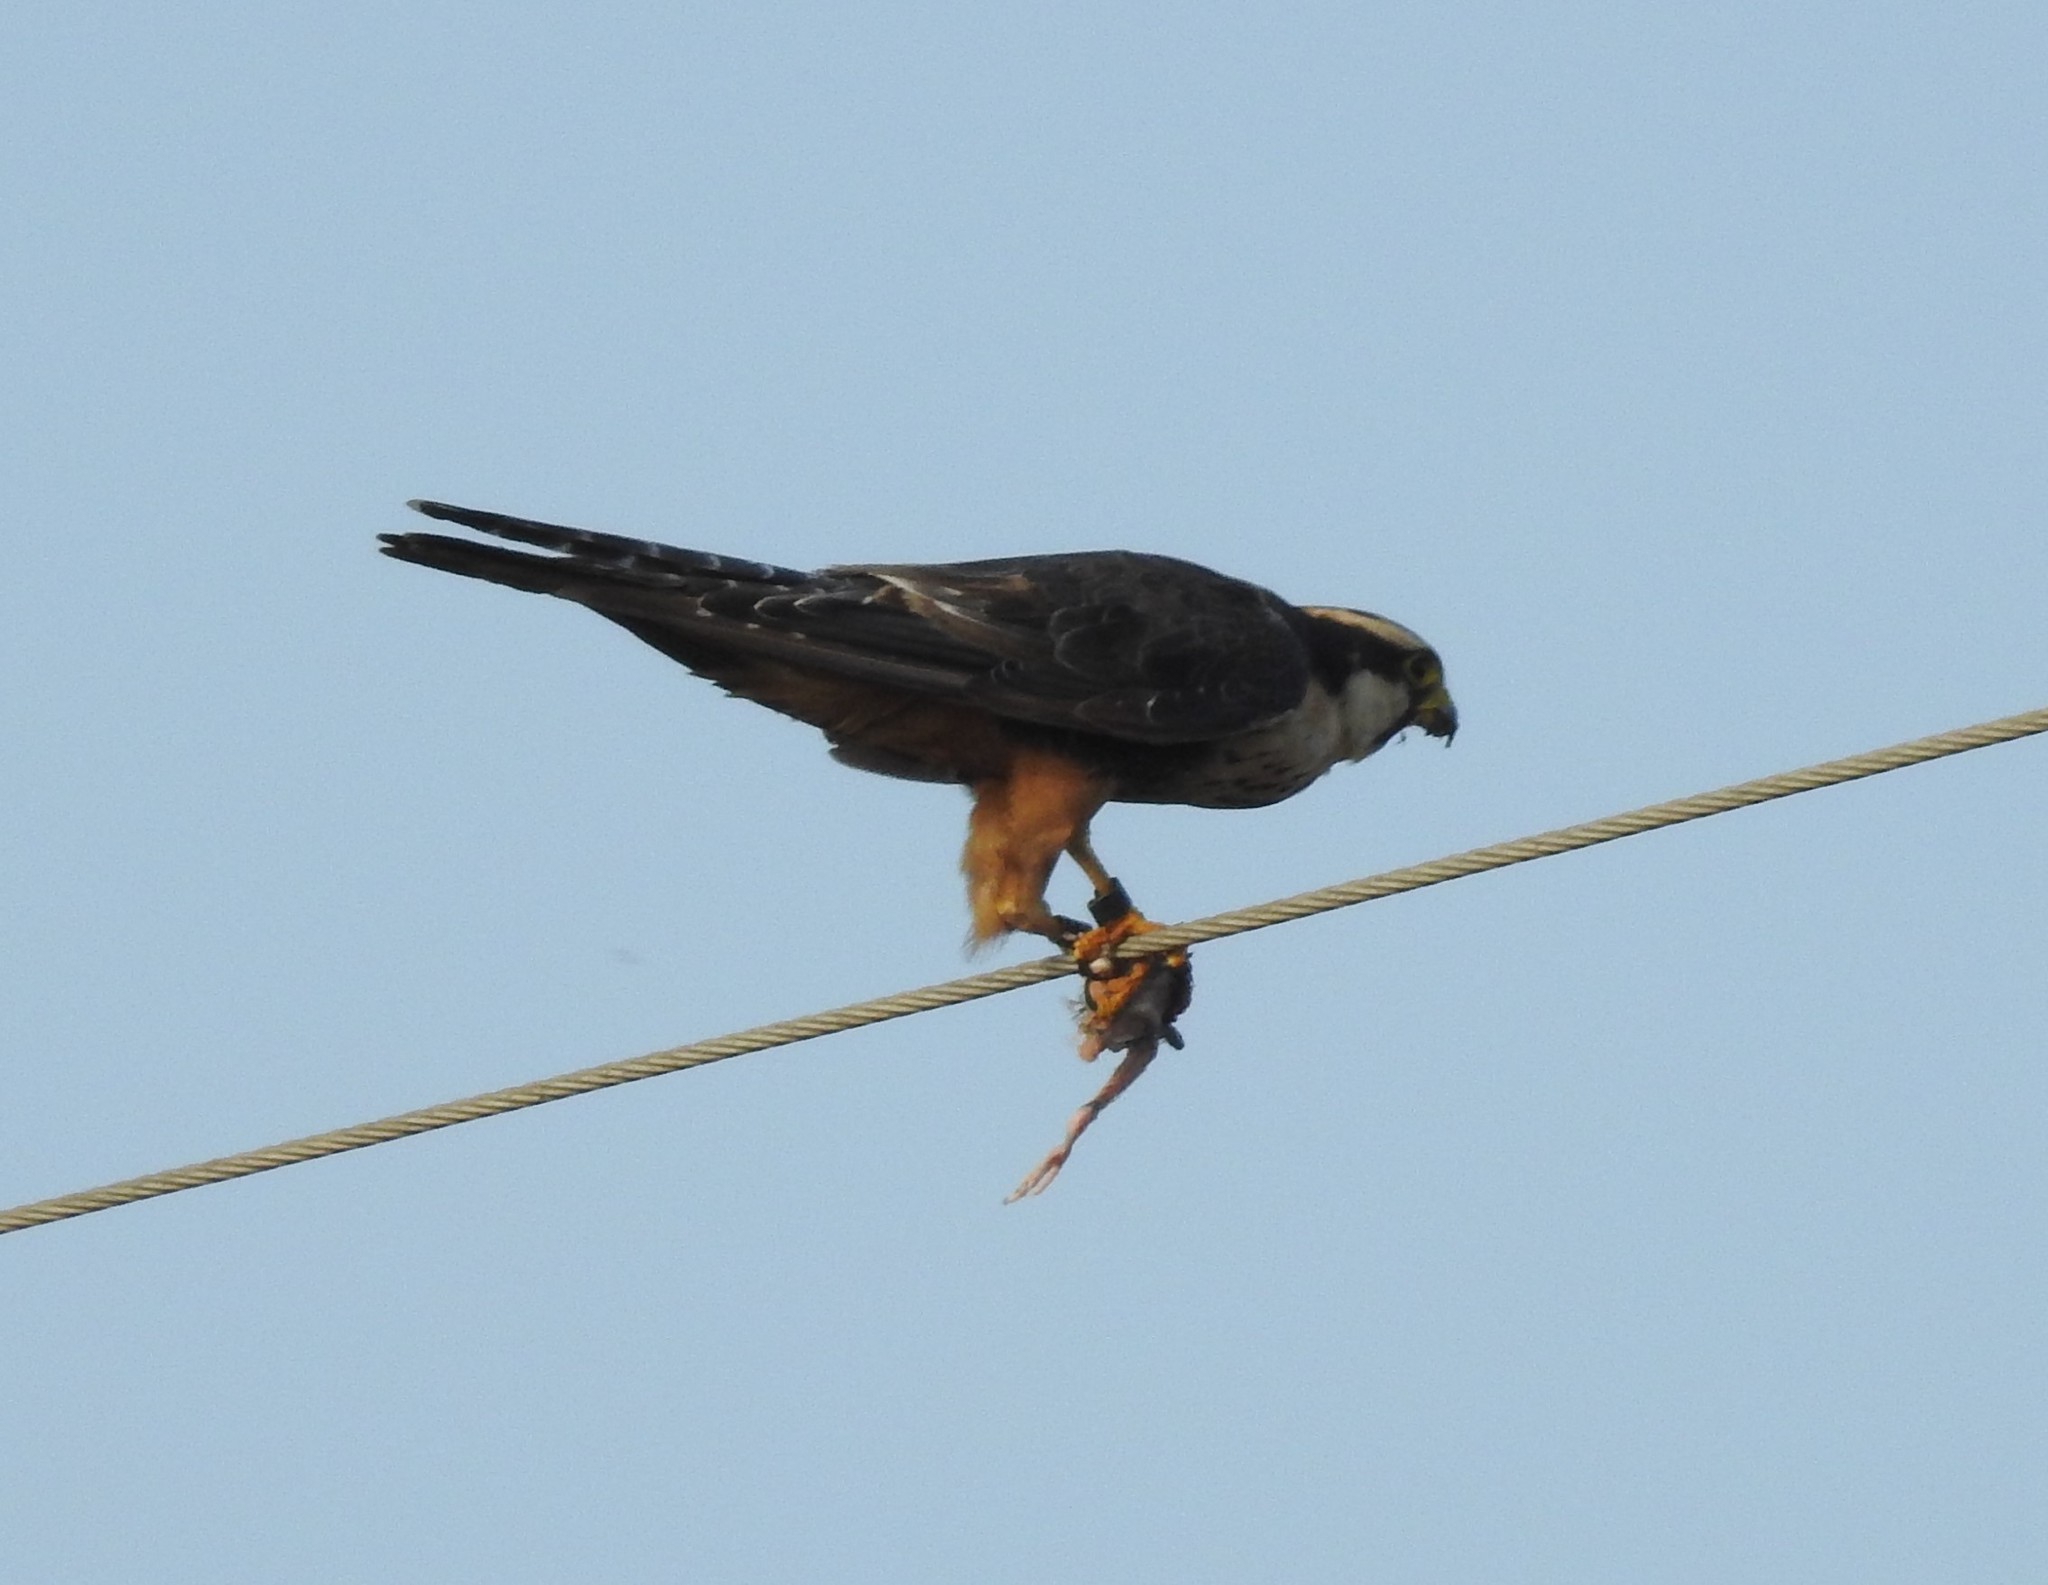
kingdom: Animalia
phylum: Chordata
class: Aves
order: Falconiformes
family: Falconidae
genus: Falco
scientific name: Falco femoralis
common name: Aplomado falcon
